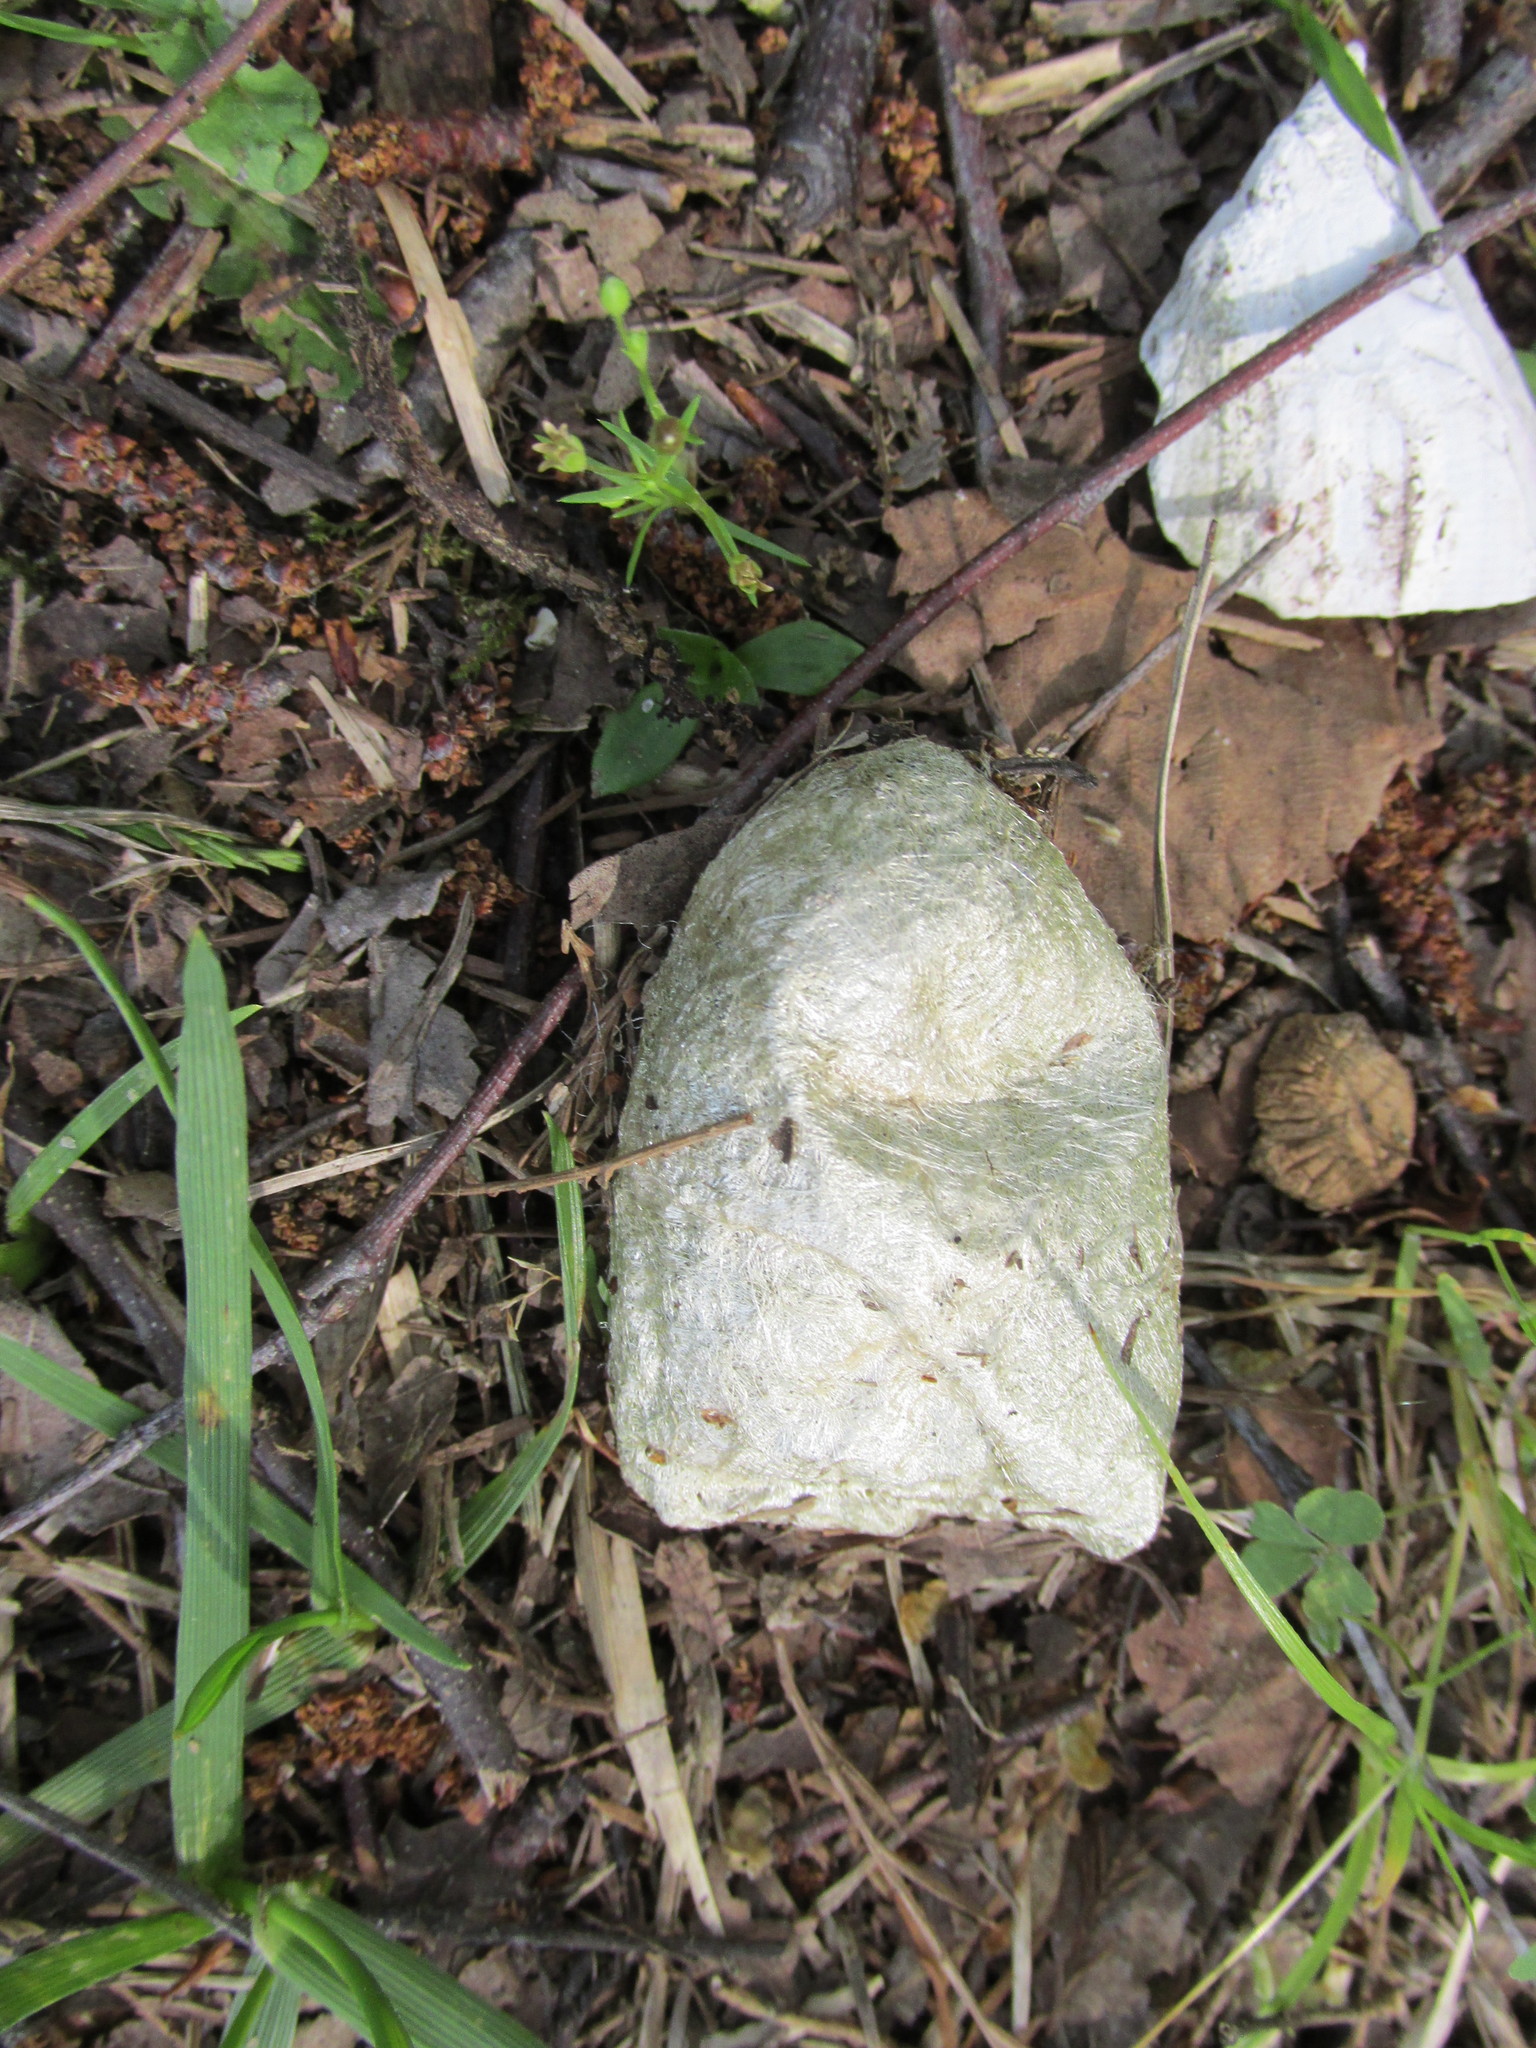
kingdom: Animalia
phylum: Arthropoda
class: Insecta
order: Lepidoptera
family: Saturniidae
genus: Antheraea
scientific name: Antheraea polyphemus
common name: Polyphemus moth
